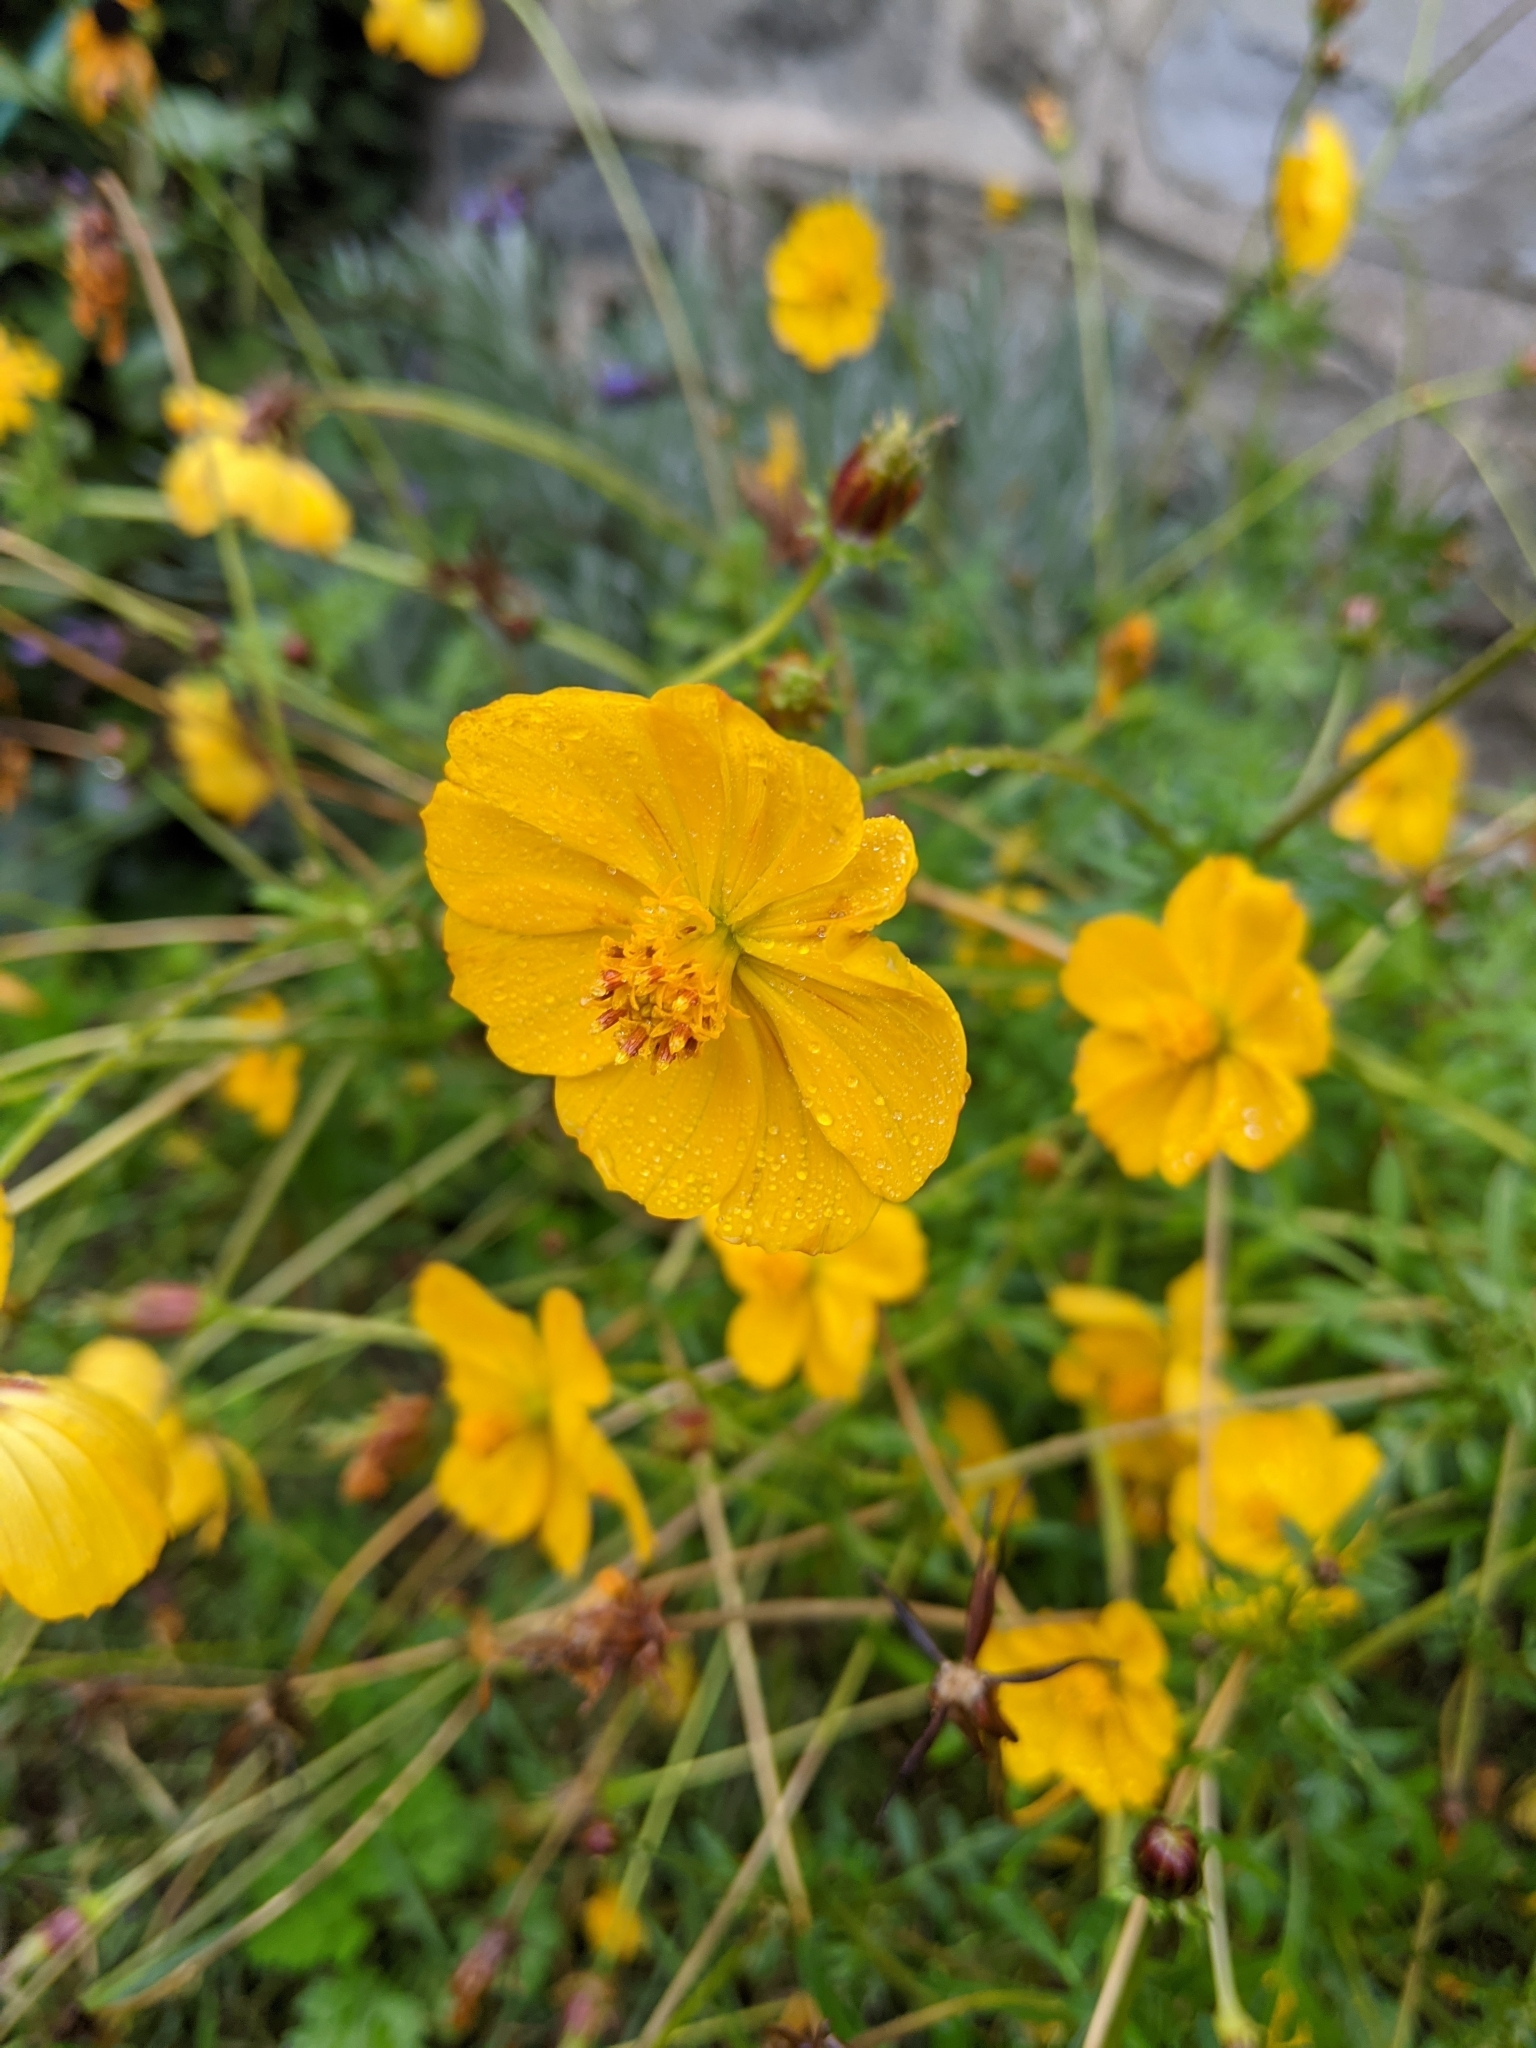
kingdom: Plantae
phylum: Tracheophyta
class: Magnoliopsida
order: Asterales
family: Asteraceae
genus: Cosmos
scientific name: Cosmos sulphureus
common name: Sulphur cosmos
